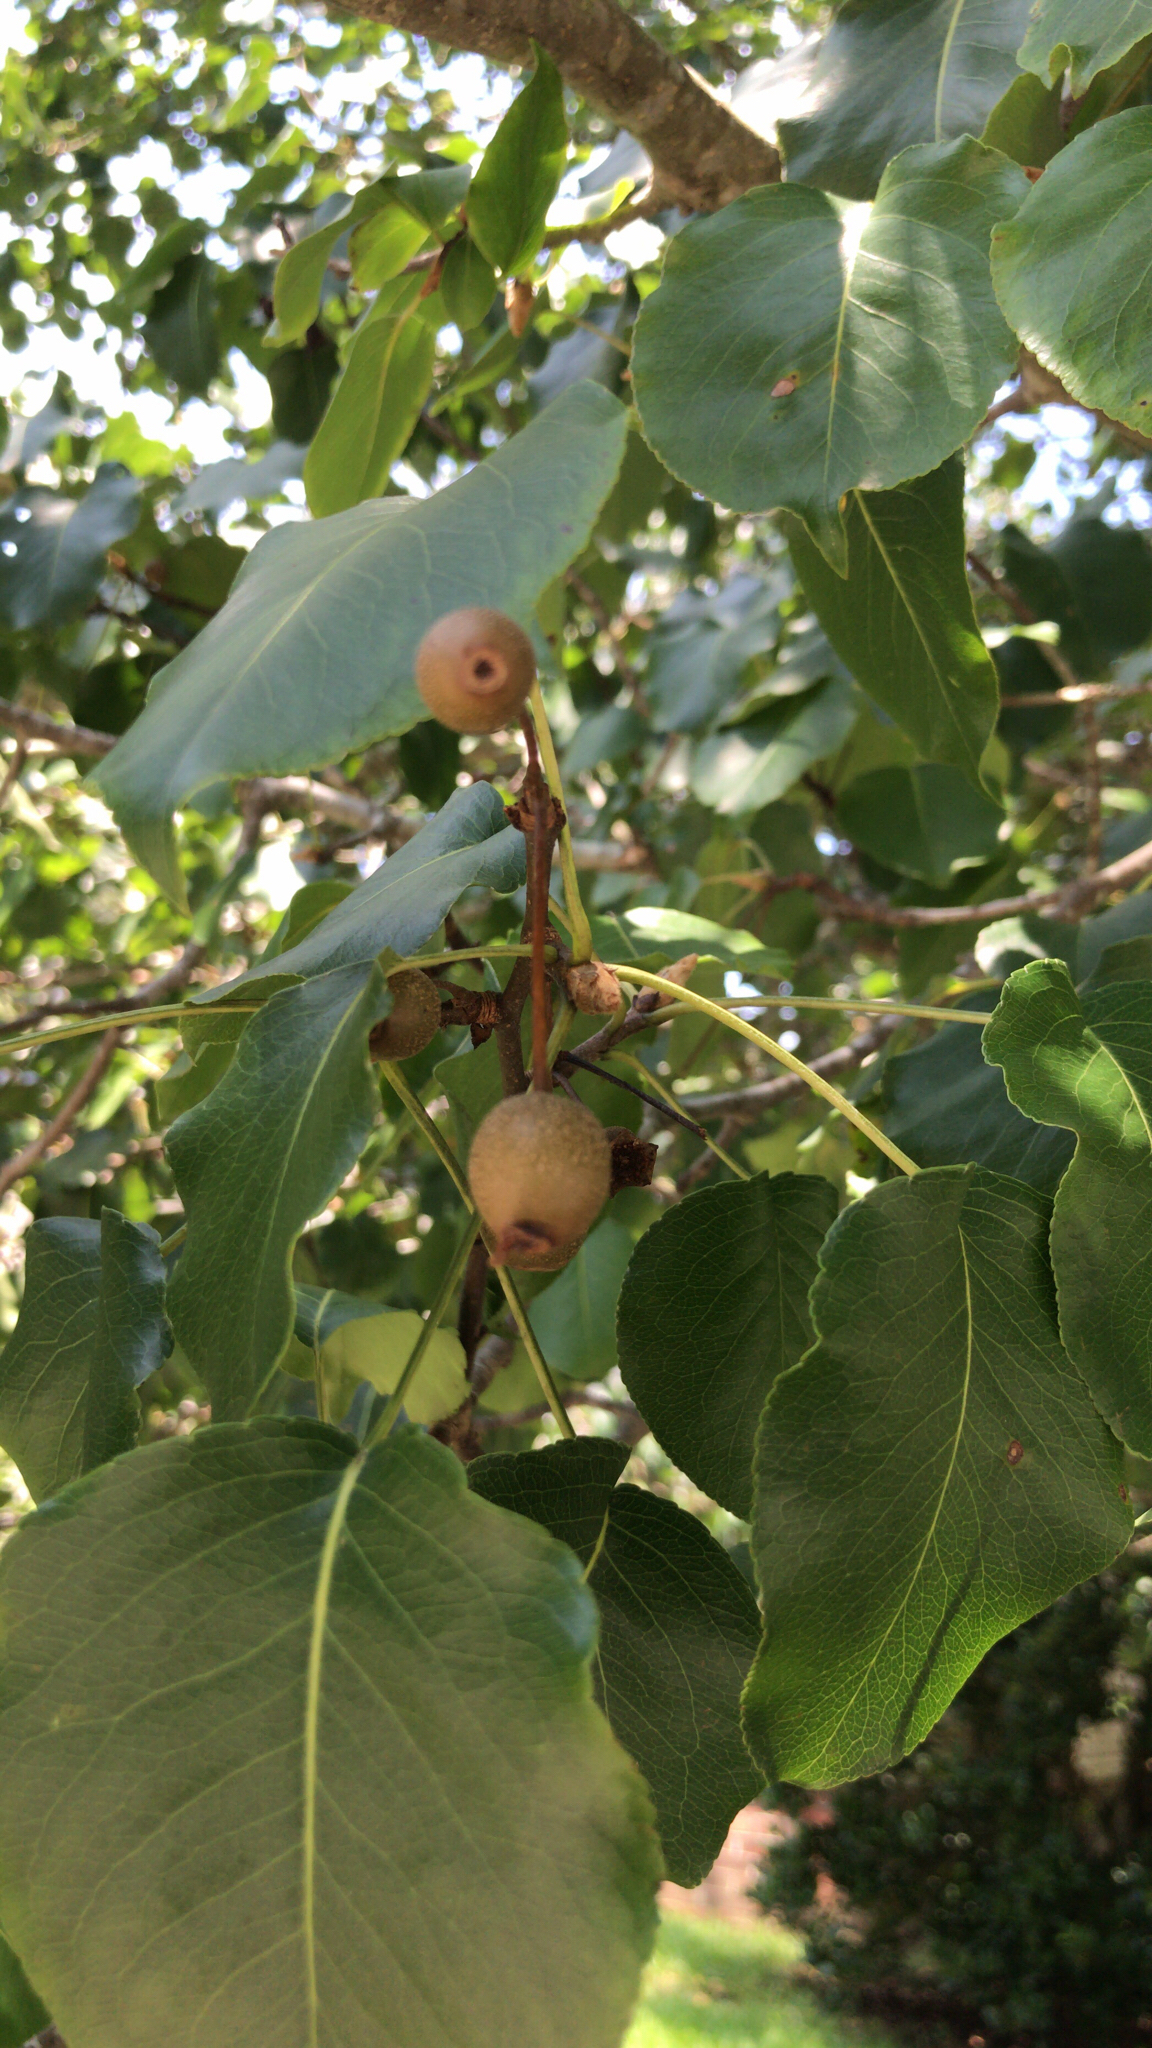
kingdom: Plantae
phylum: Tracheophyta
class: Magnoliopsida
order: Rosales
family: Rosaceae
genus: Pyrus
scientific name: Pyrus calleryana
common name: Callery pear
